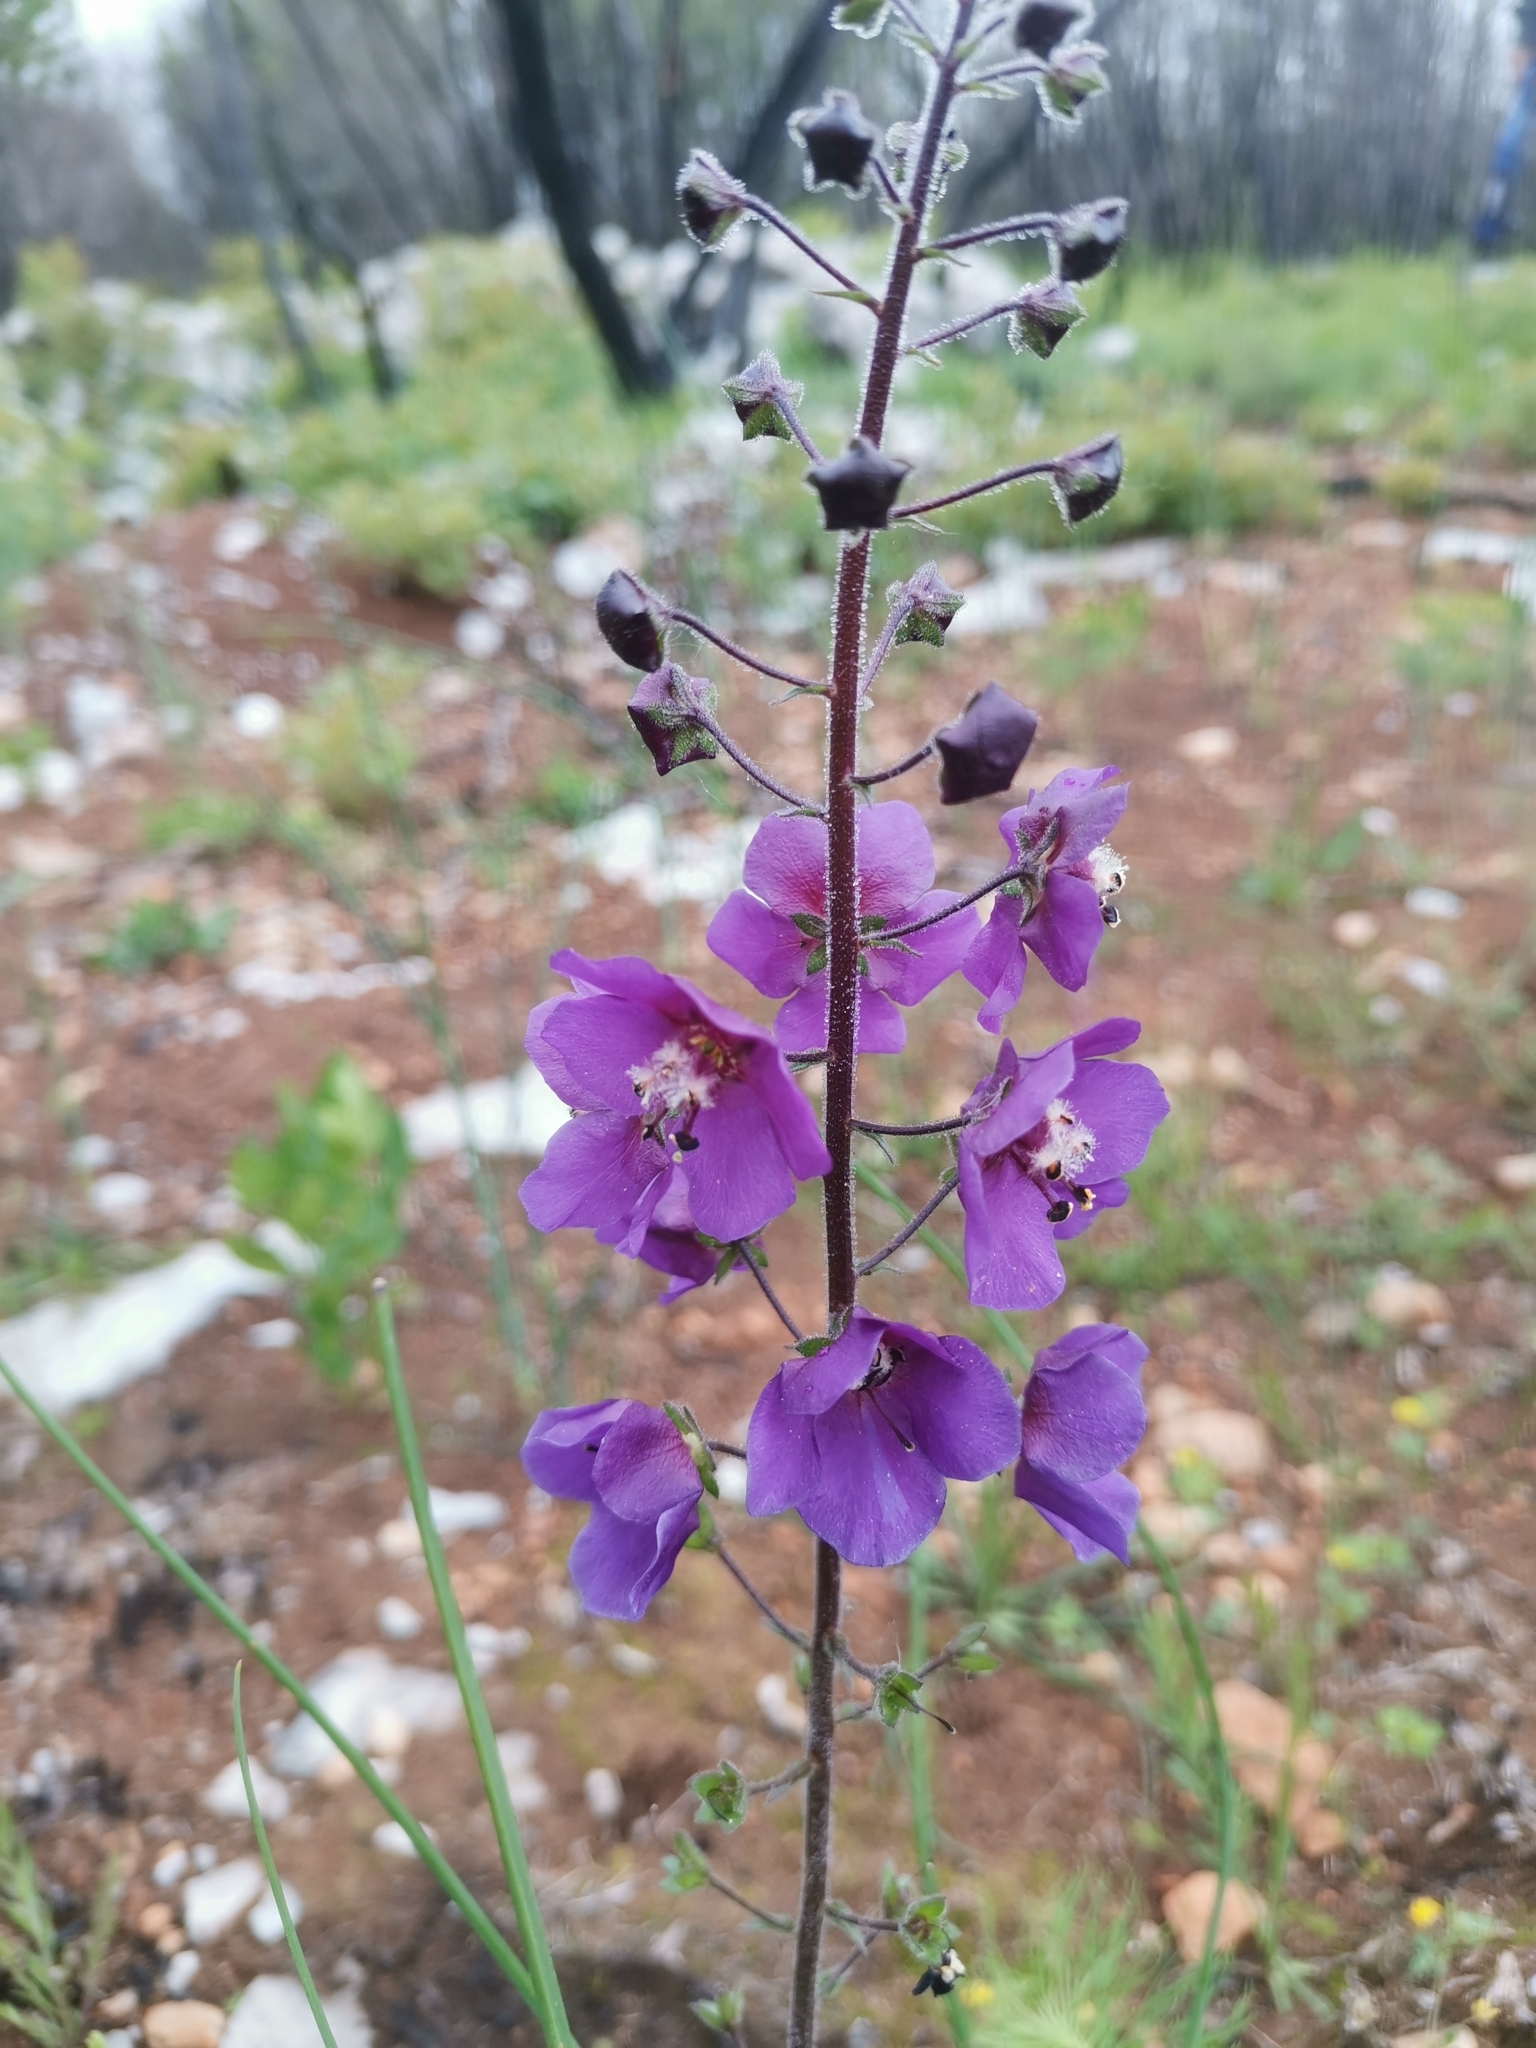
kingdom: Plantae
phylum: Tracheophyta
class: Magnoliopsida
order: Lamiales
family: Scrophulariaceae
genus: Verbascum
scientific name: Verbascum phoeniceum
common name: Purple mullein
